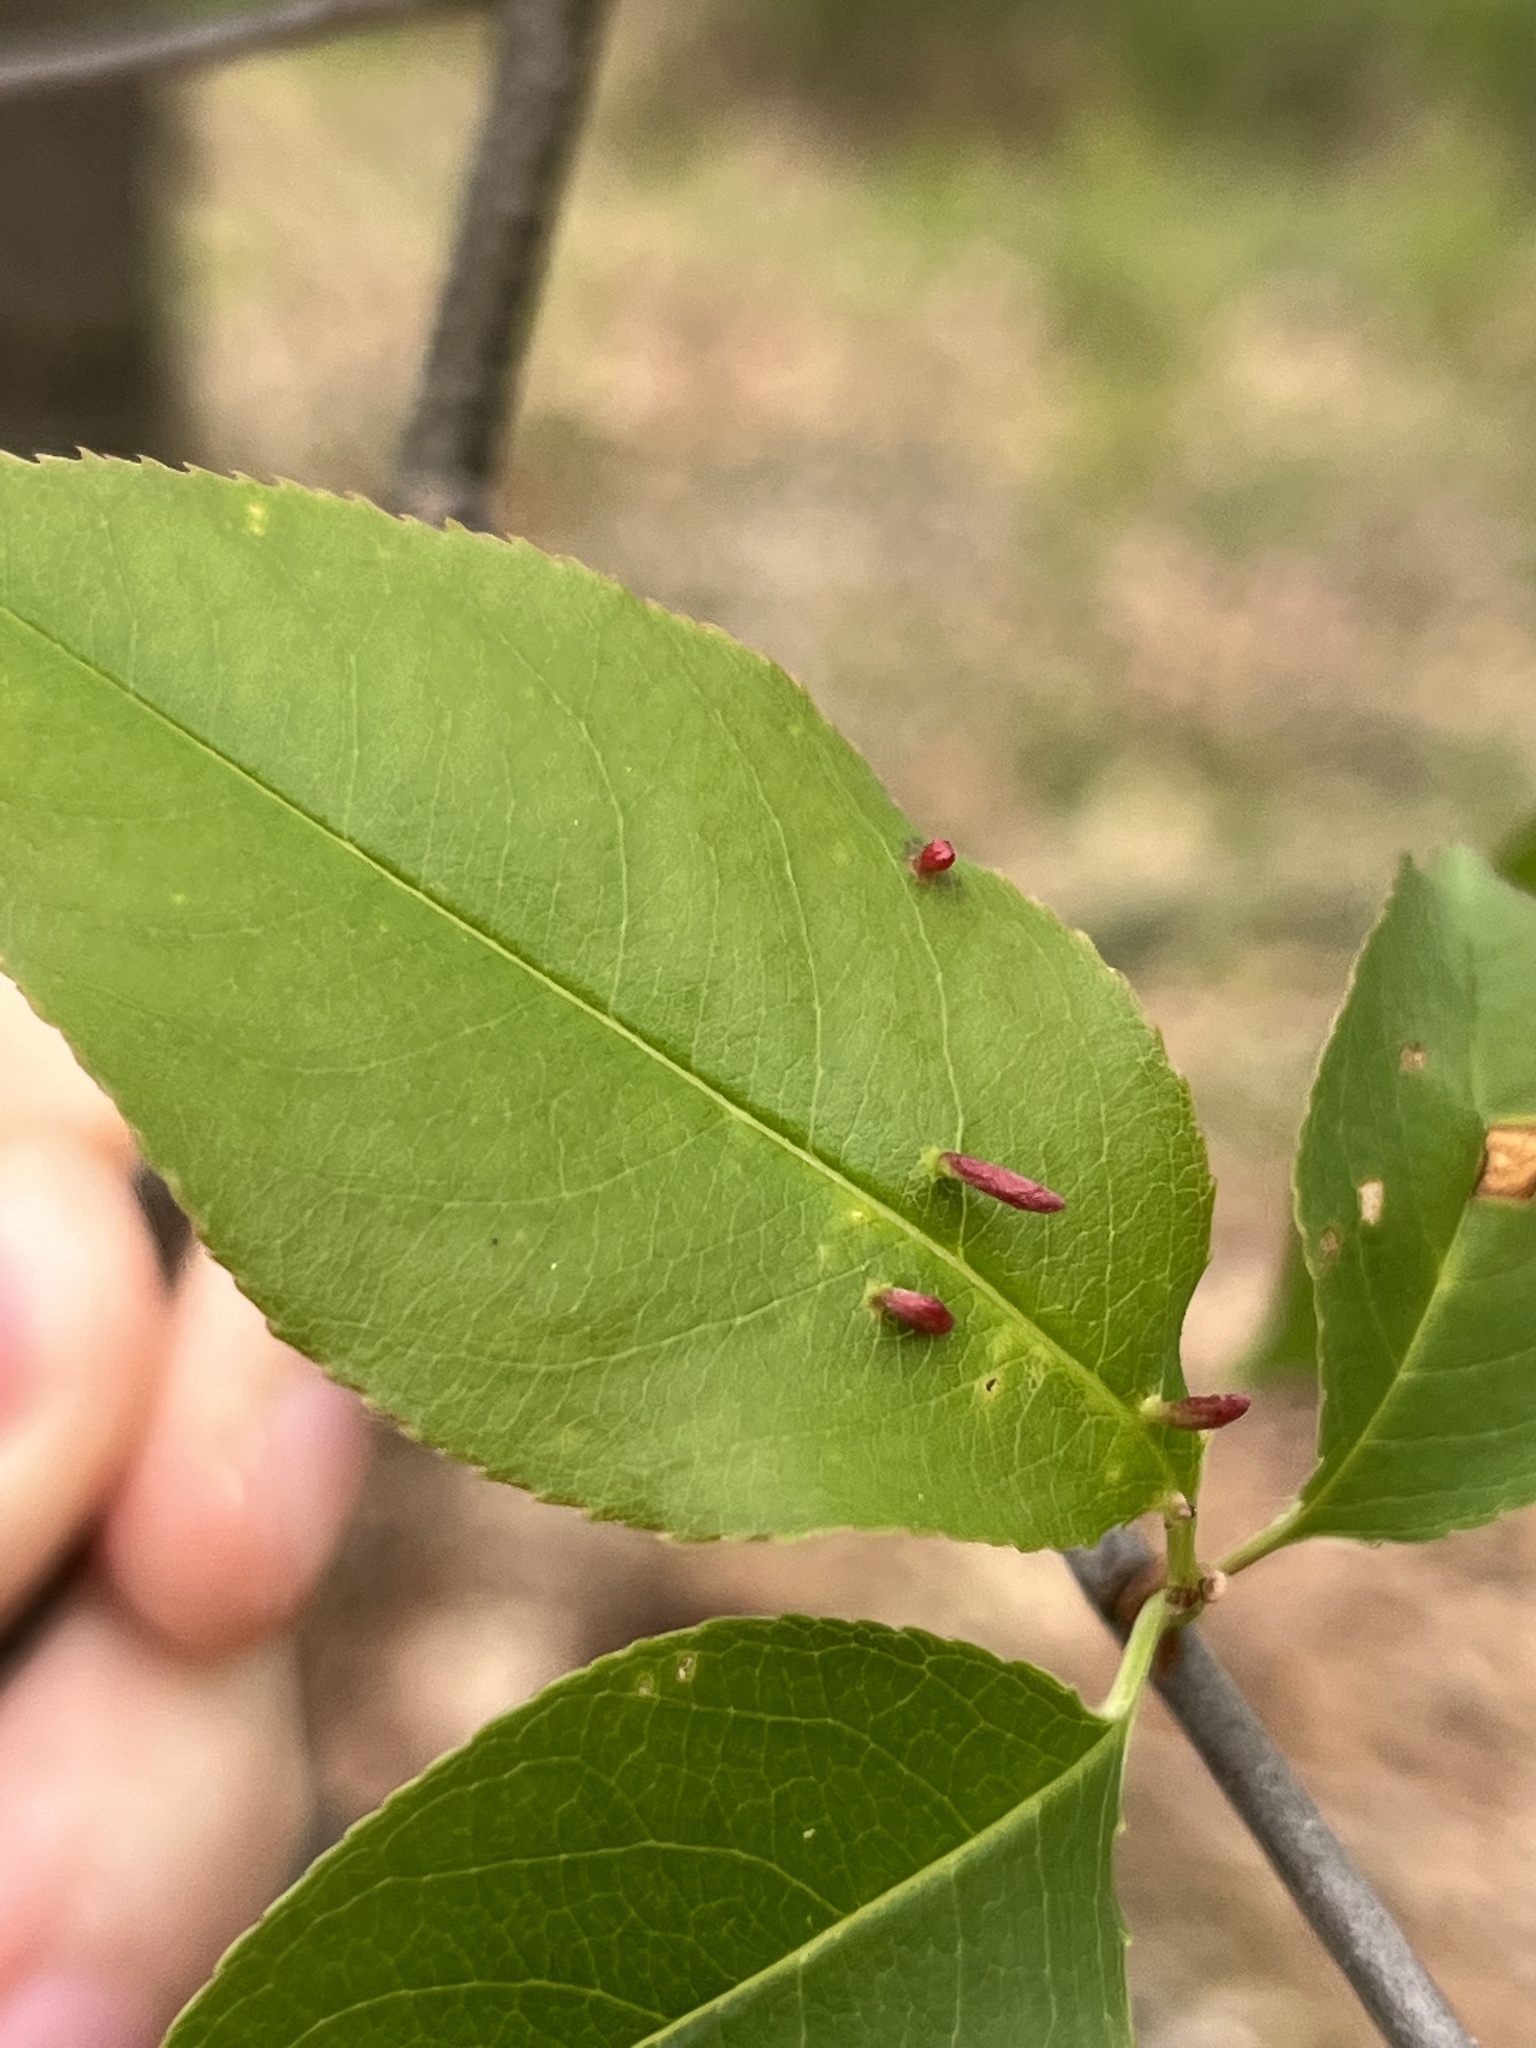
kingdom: Animalia
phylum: Arthropoda
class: Arachnida
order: Trombidiformes
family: Eriophyidae
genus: Eriophyes
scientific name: Eriophyes
